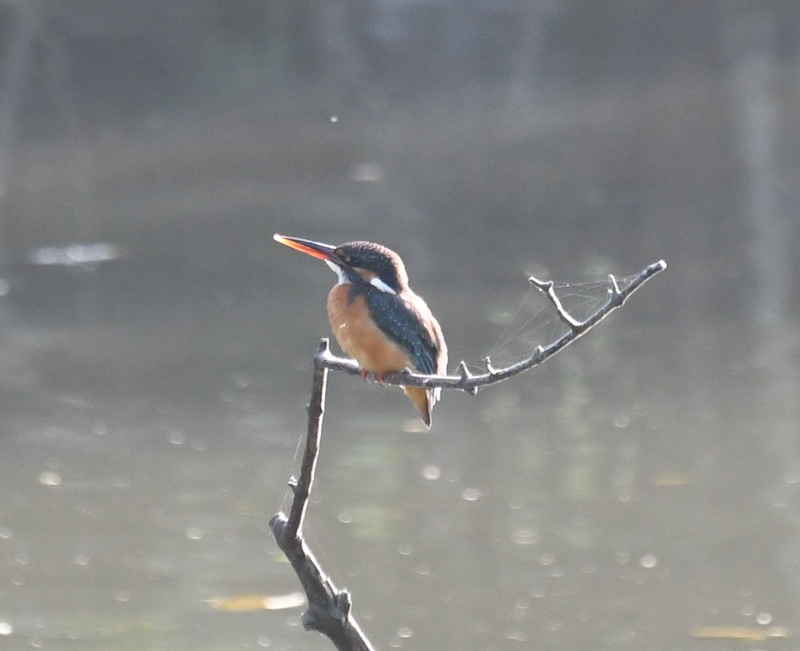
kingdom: Animalia
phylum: Chordata
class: Aves
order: Coraciiformes
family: Alcedinidae
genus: Alcedo
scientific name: Alcedo atthis
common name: Common kingfisher
